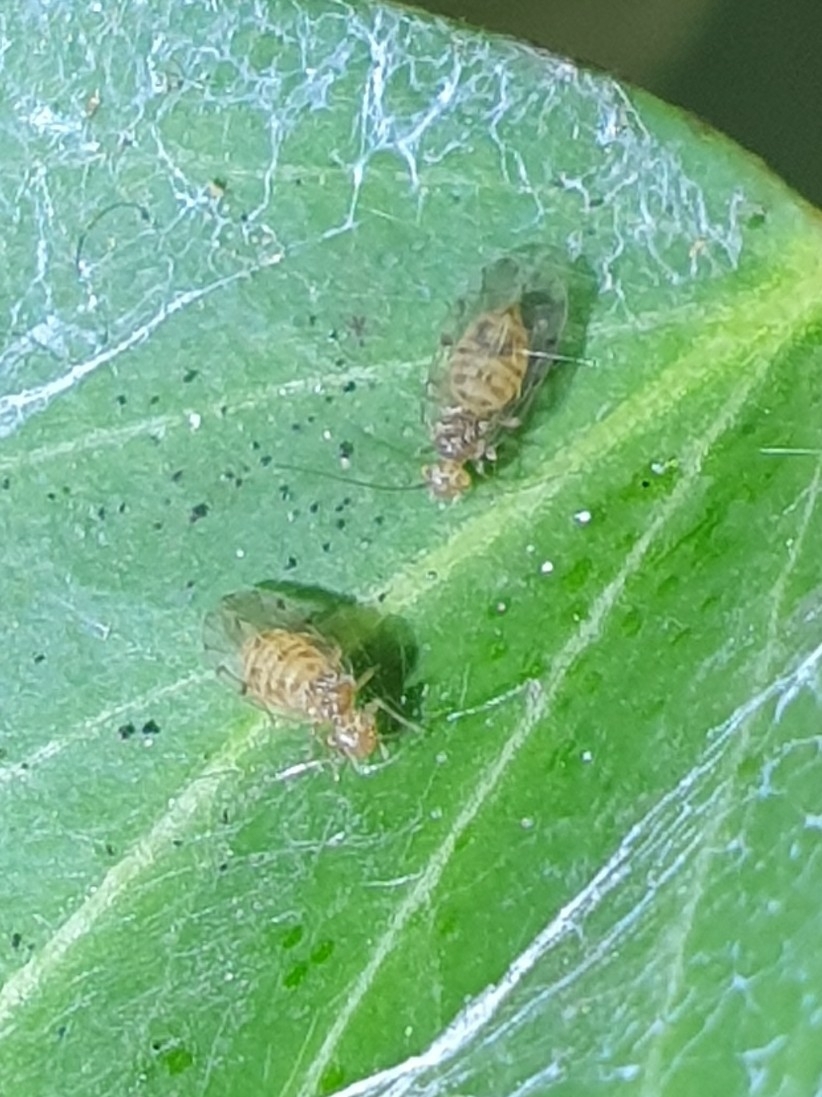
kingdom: Animalia
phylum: Arthropoda
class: Insecta
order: Psocodea
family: Ectopsocidae
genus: Ectopsocus
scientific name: Ectopsocus petersi
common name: Medium-sized bark louse
